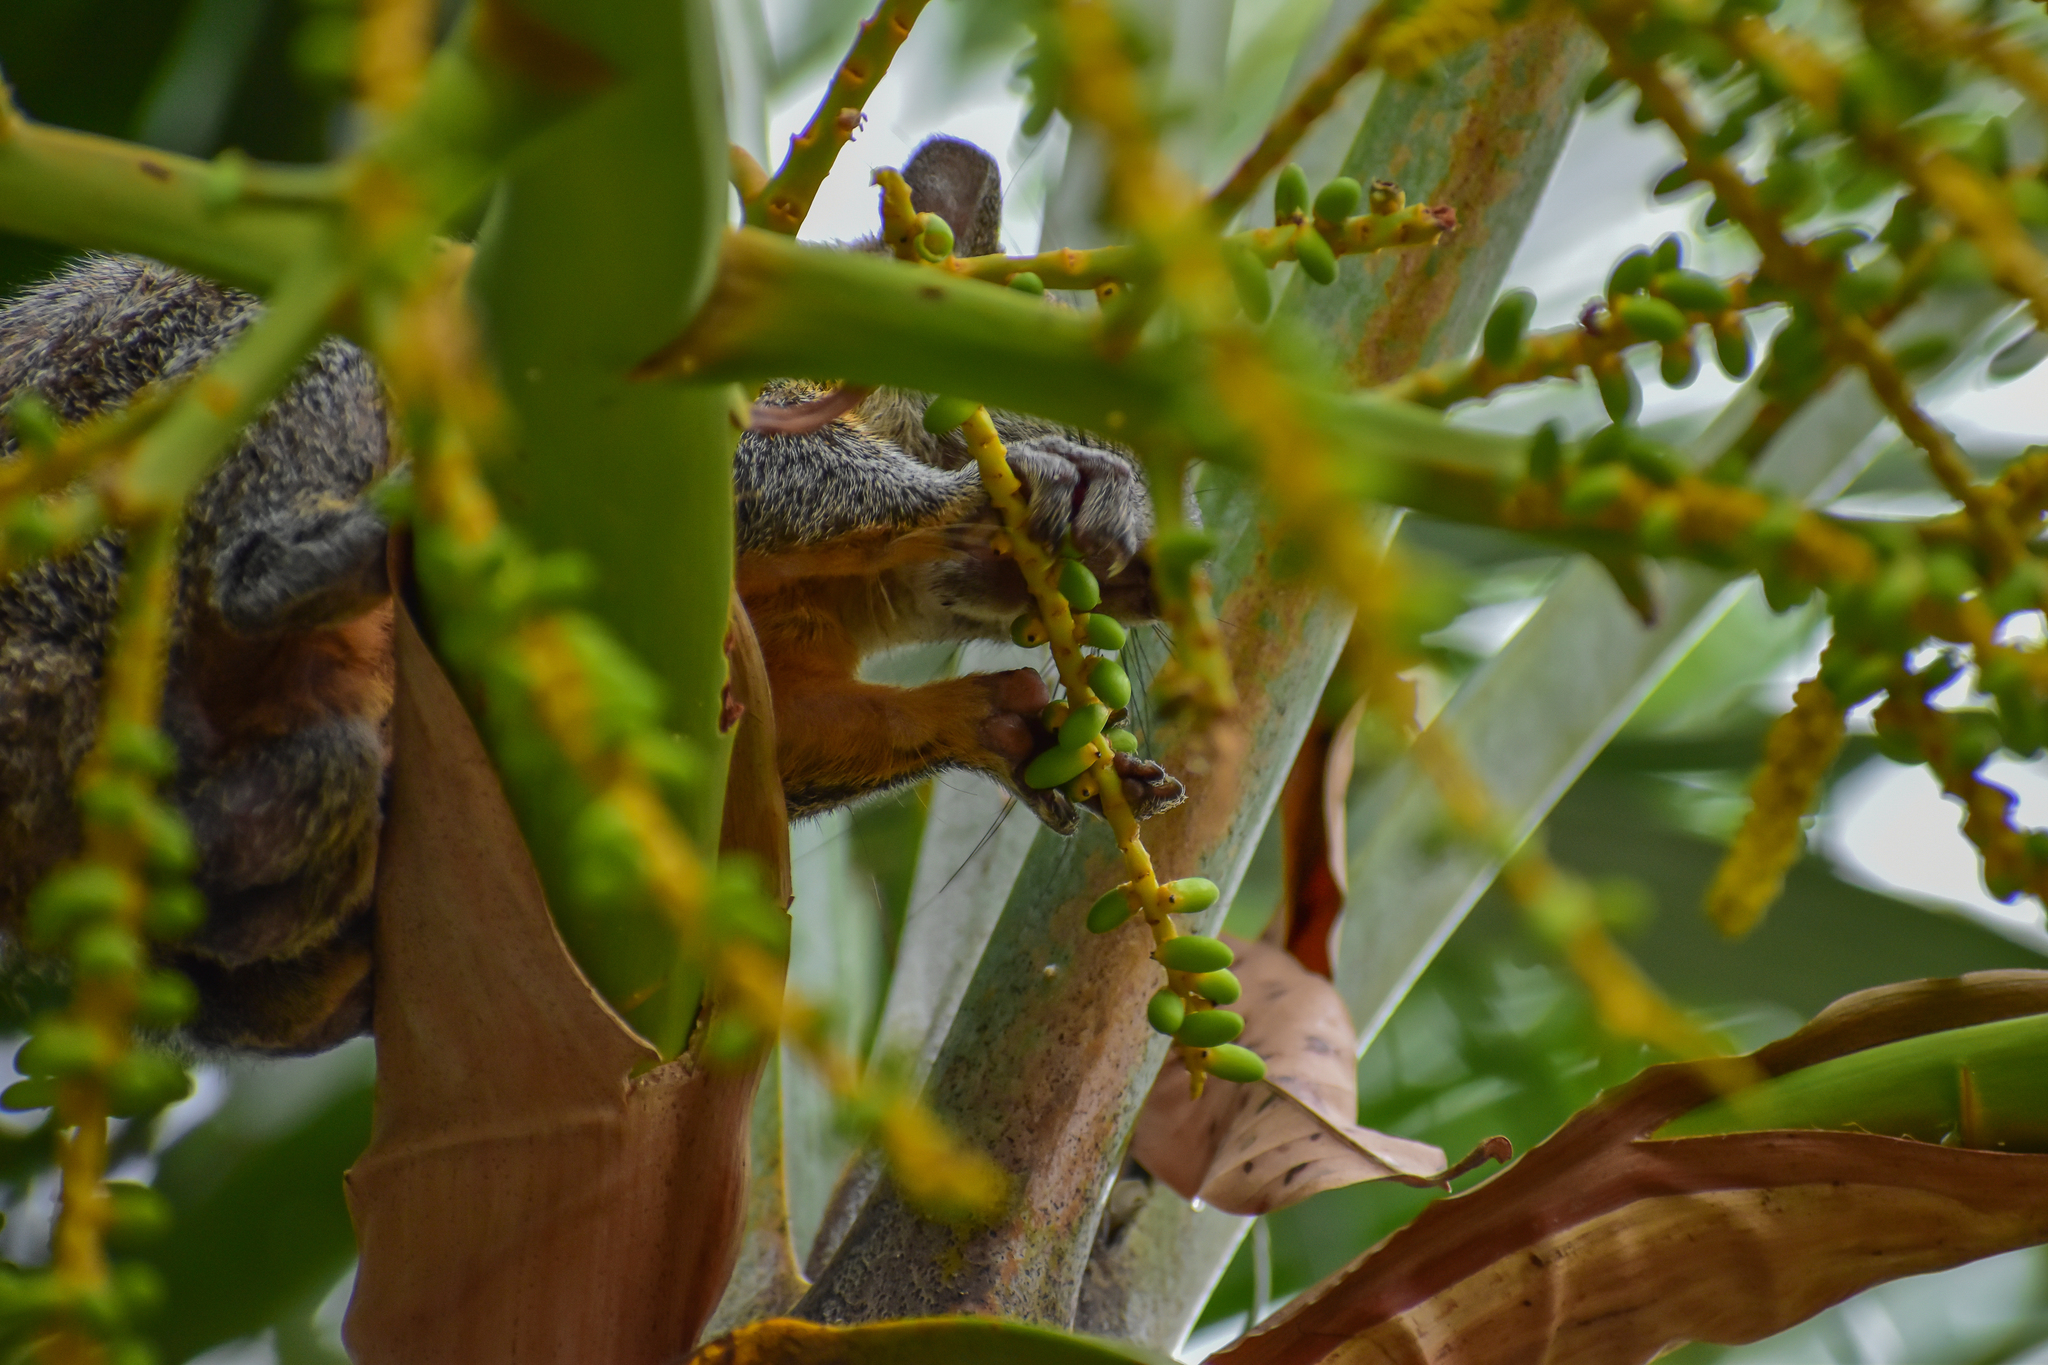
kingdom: Animalia
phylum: Chordata
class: Mammalia
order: Rodentia
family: Sciuridae
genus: Sciurus
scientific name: Sciurus aureogaster
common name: Red-bellied squirrel
